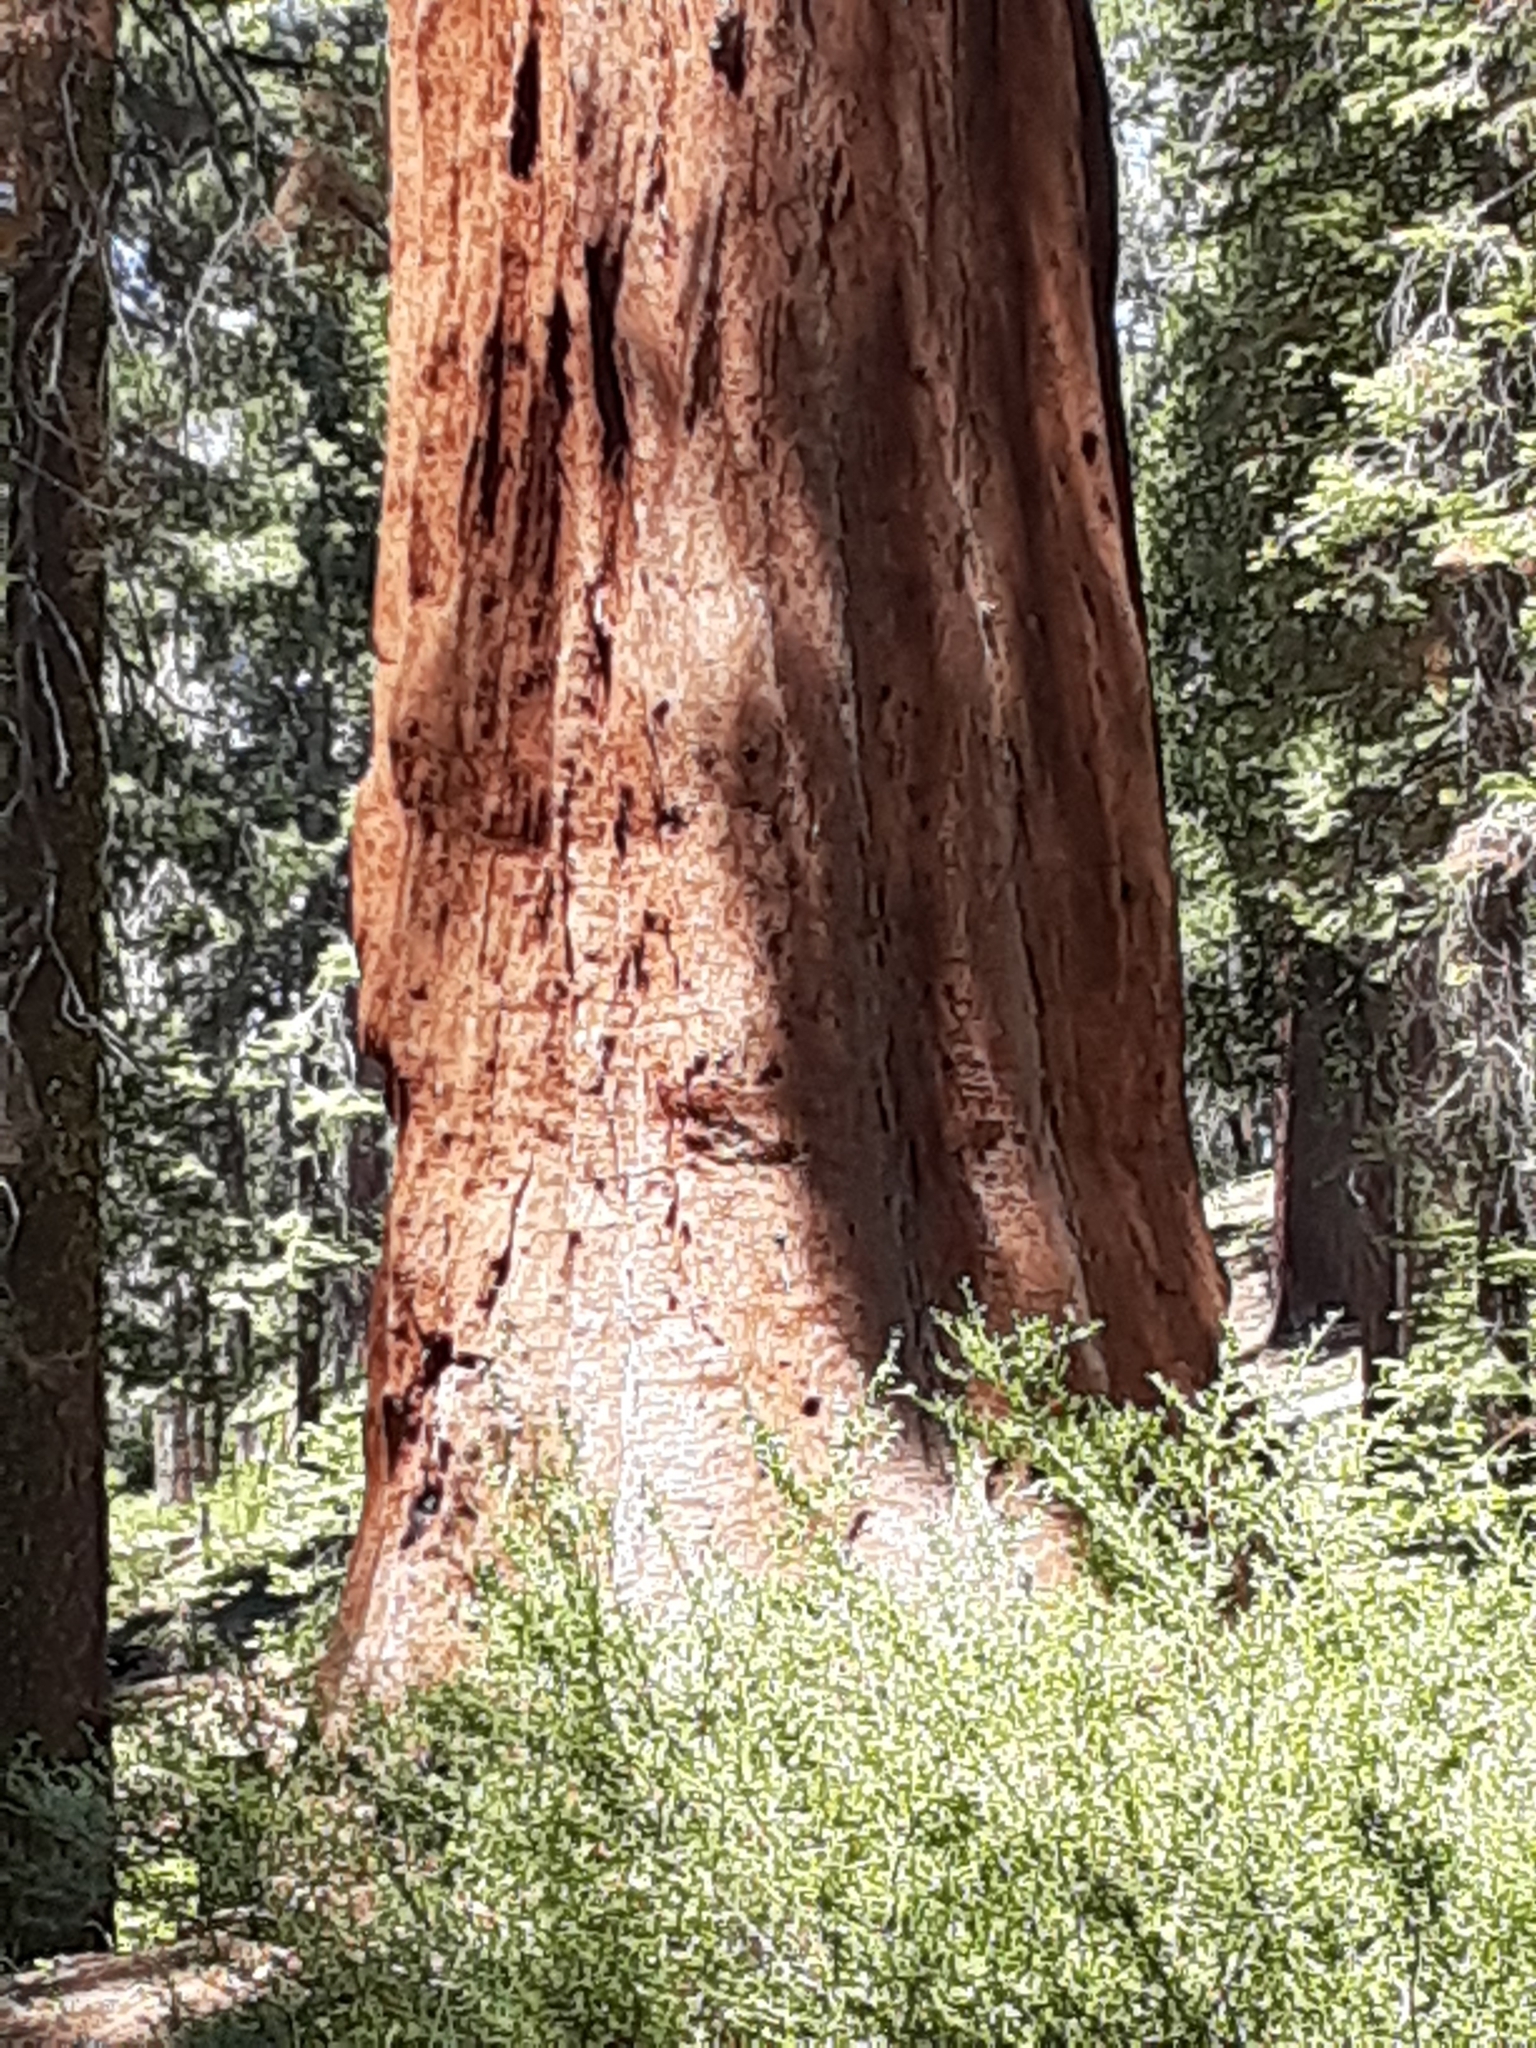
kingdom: Plantae
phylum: Tracheophyta
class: Pinopsida
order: Pinales
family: Cupressaceae
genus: Sequoiadendron
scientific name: Sequoiadendron giganteum
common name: Wellingtonia
